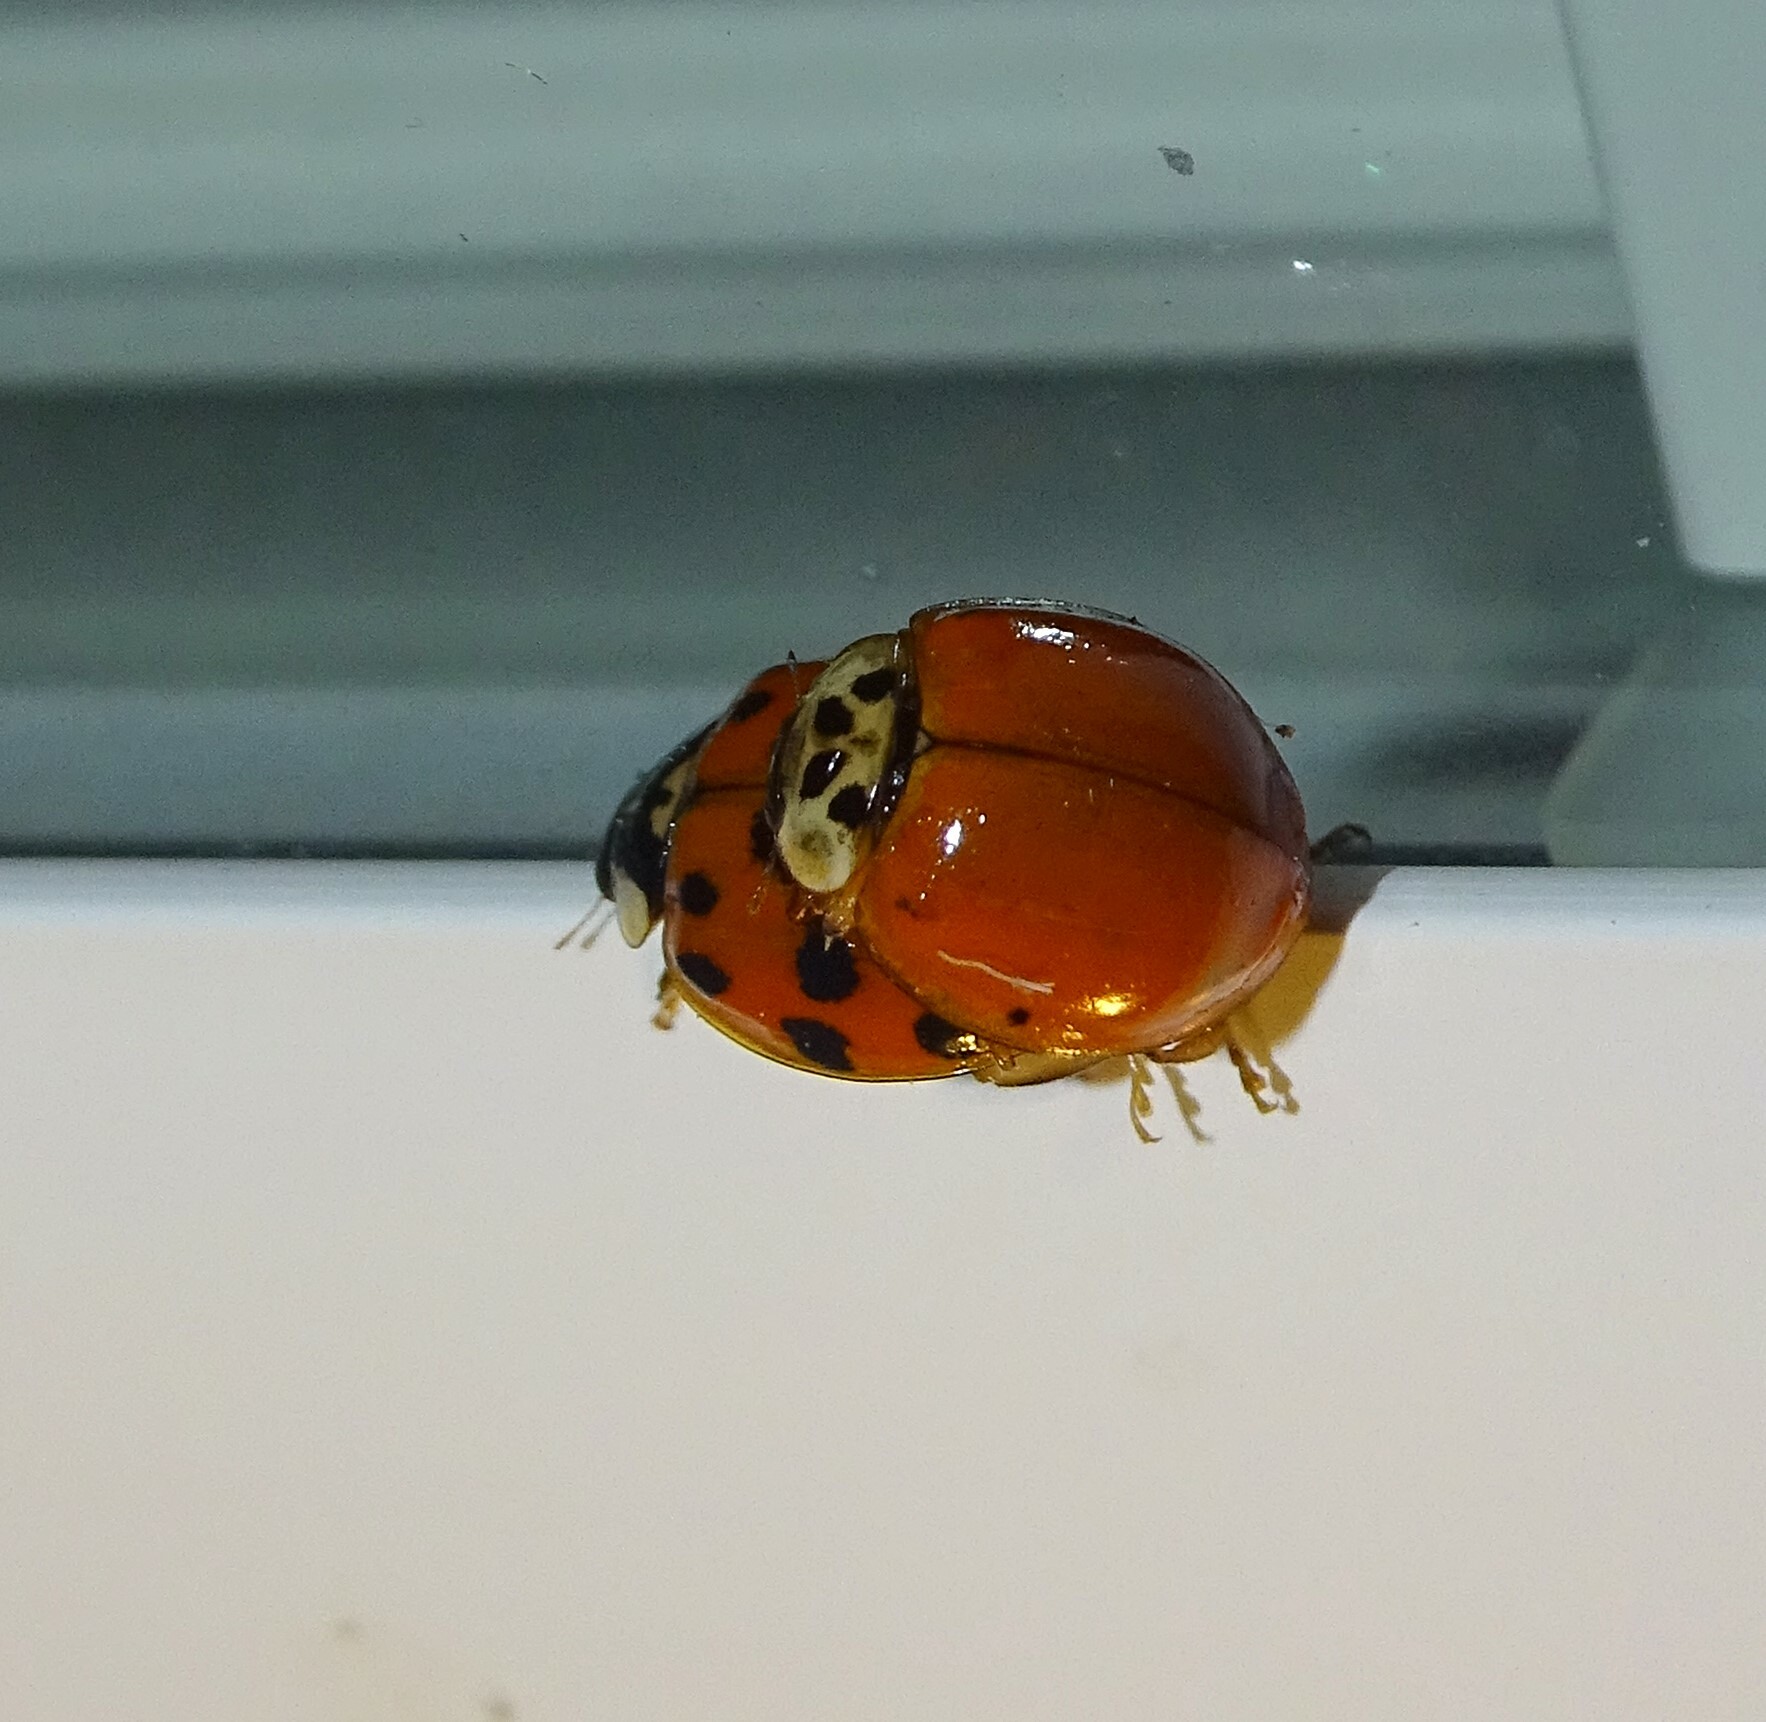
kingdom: Animalia
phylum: Arthropoda
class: Insecta
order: Coleoptera
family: Coccinellidae
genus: Harmonia
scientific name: Harmonia axyridis
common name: Harlequin ladybird
